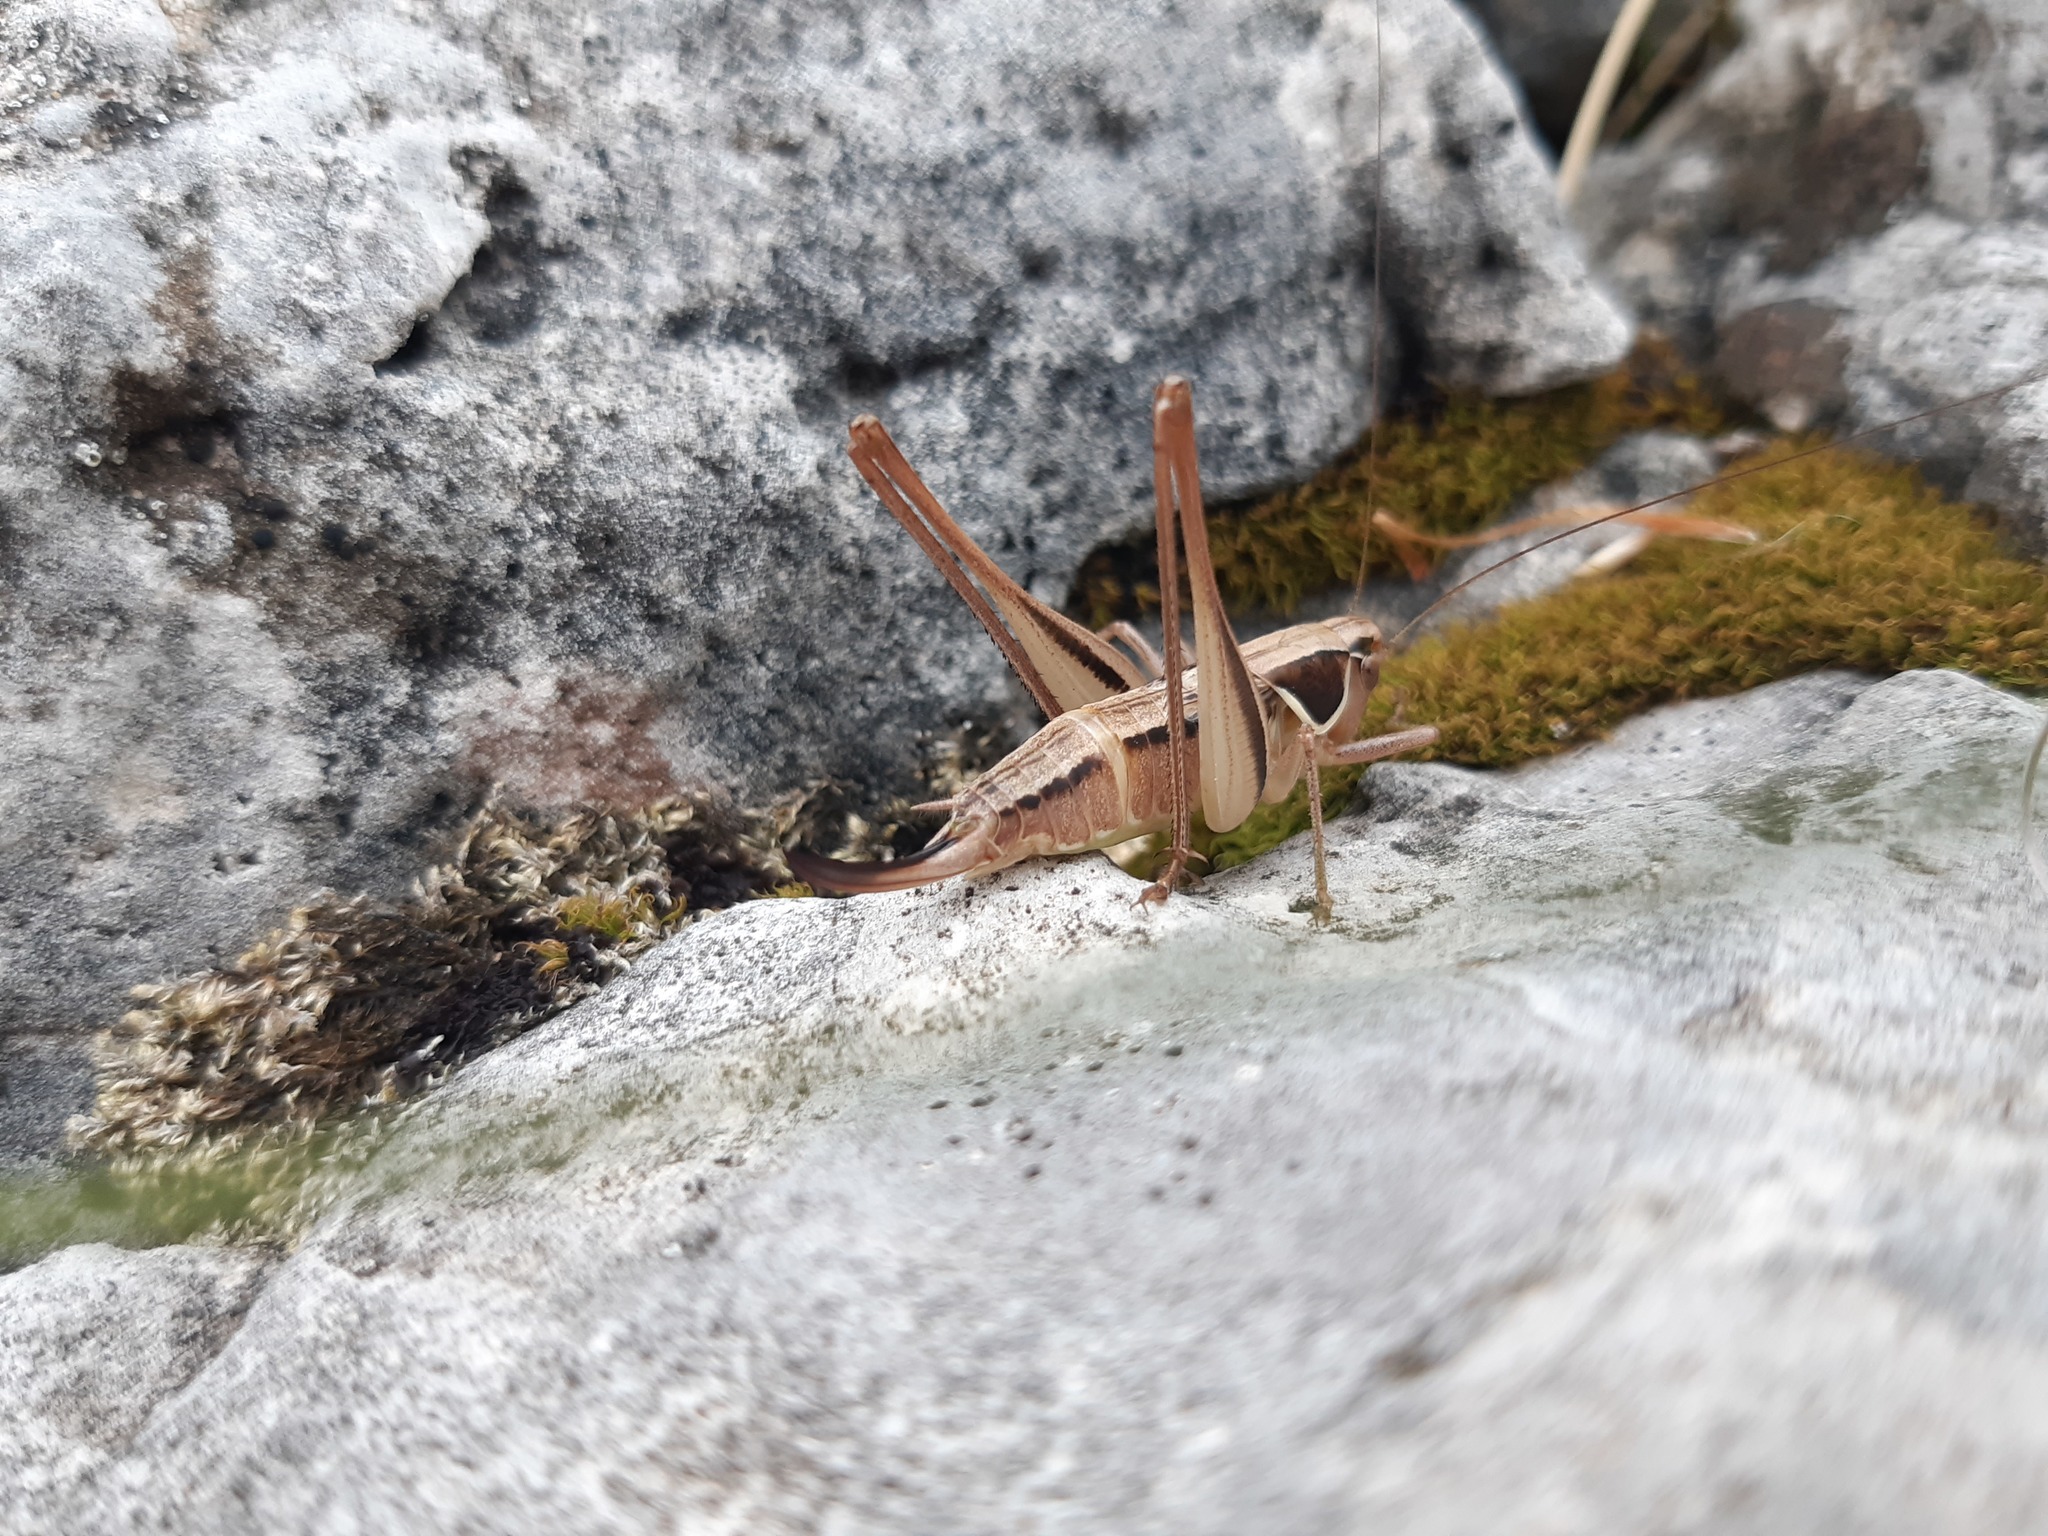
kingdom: Animalia
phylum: Arthropoda
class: Insecta
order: Orthoptera
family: Tettigoniidae
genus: Modestana
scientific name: Modestana modesta
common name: Common modest bush-cricket
